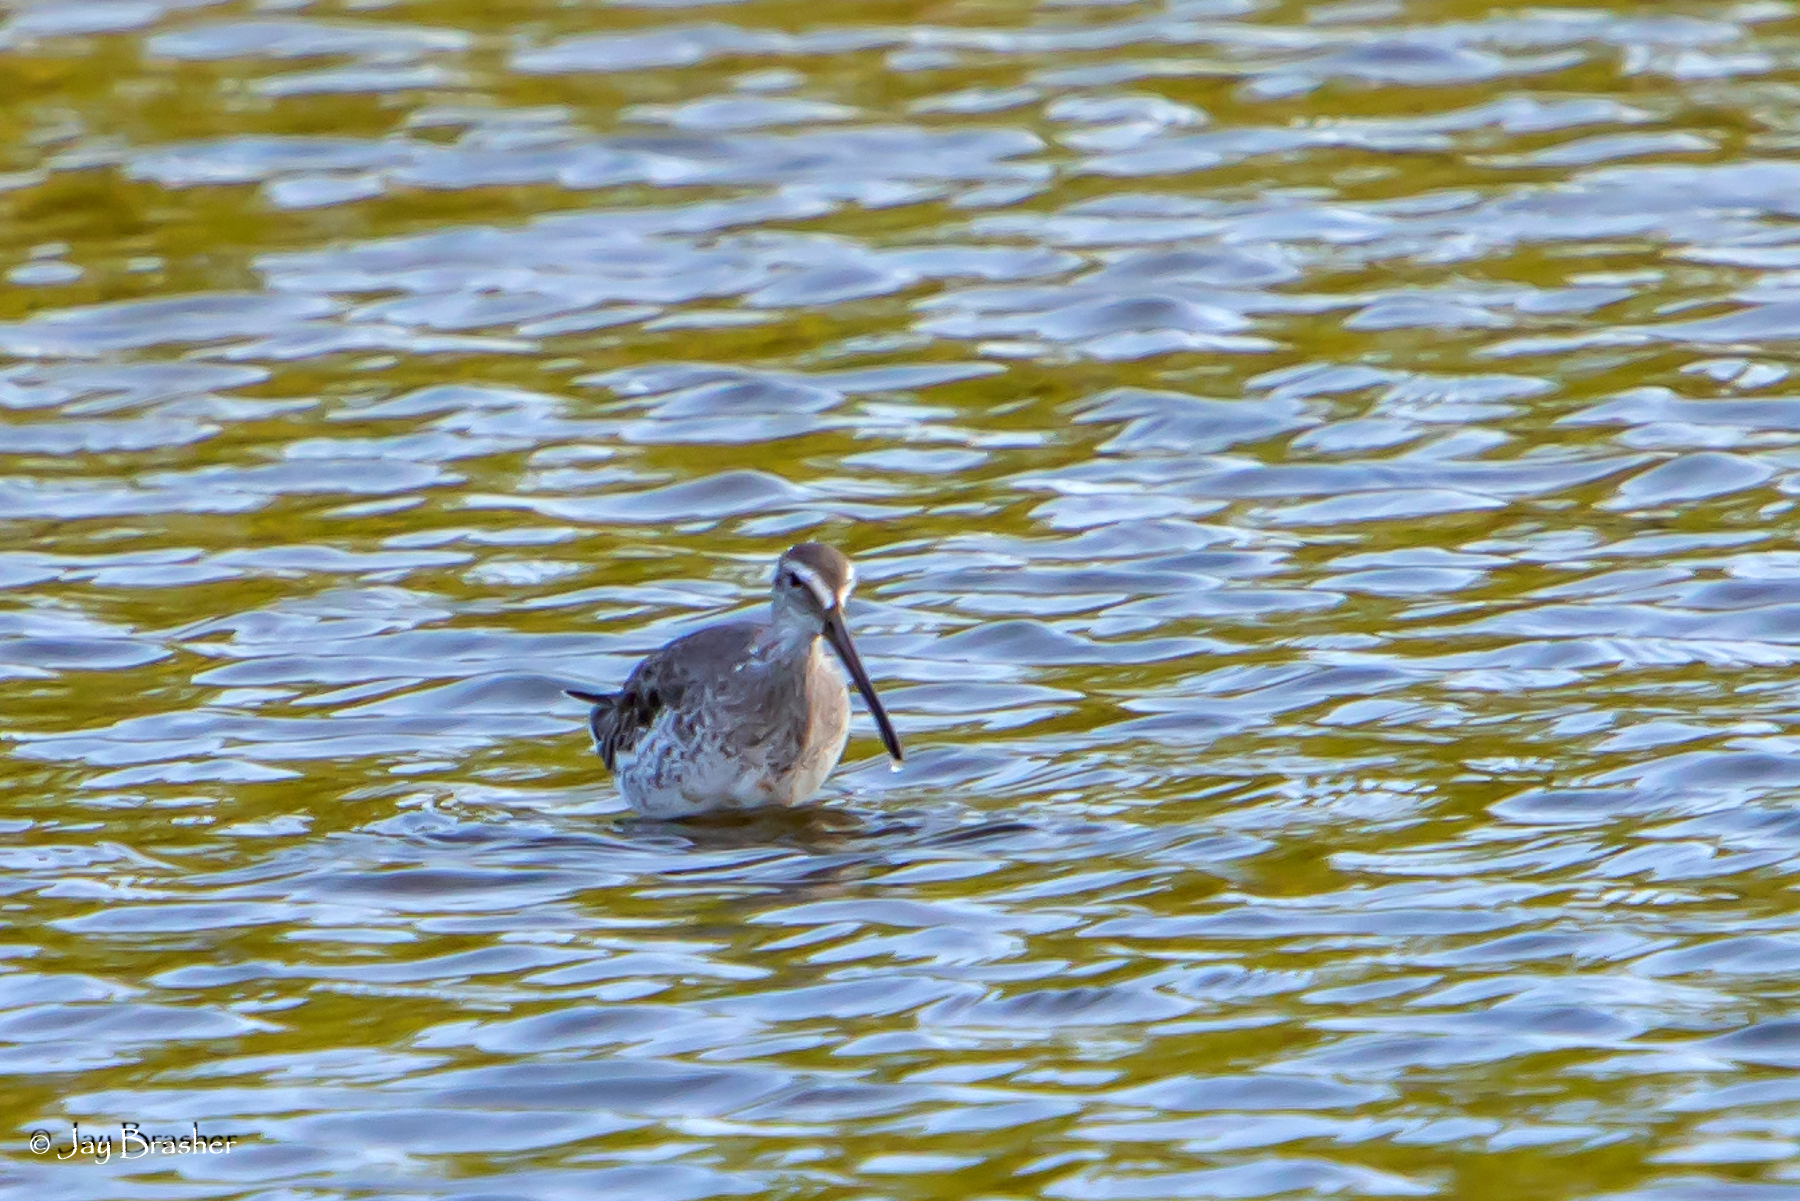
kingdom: Animalia
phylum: Chordata
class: Aves
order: Charadriiformes
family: Scolopacidae
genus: Limnodromus
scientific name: Limnodromus griseus
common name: Short-billed dowitcher
